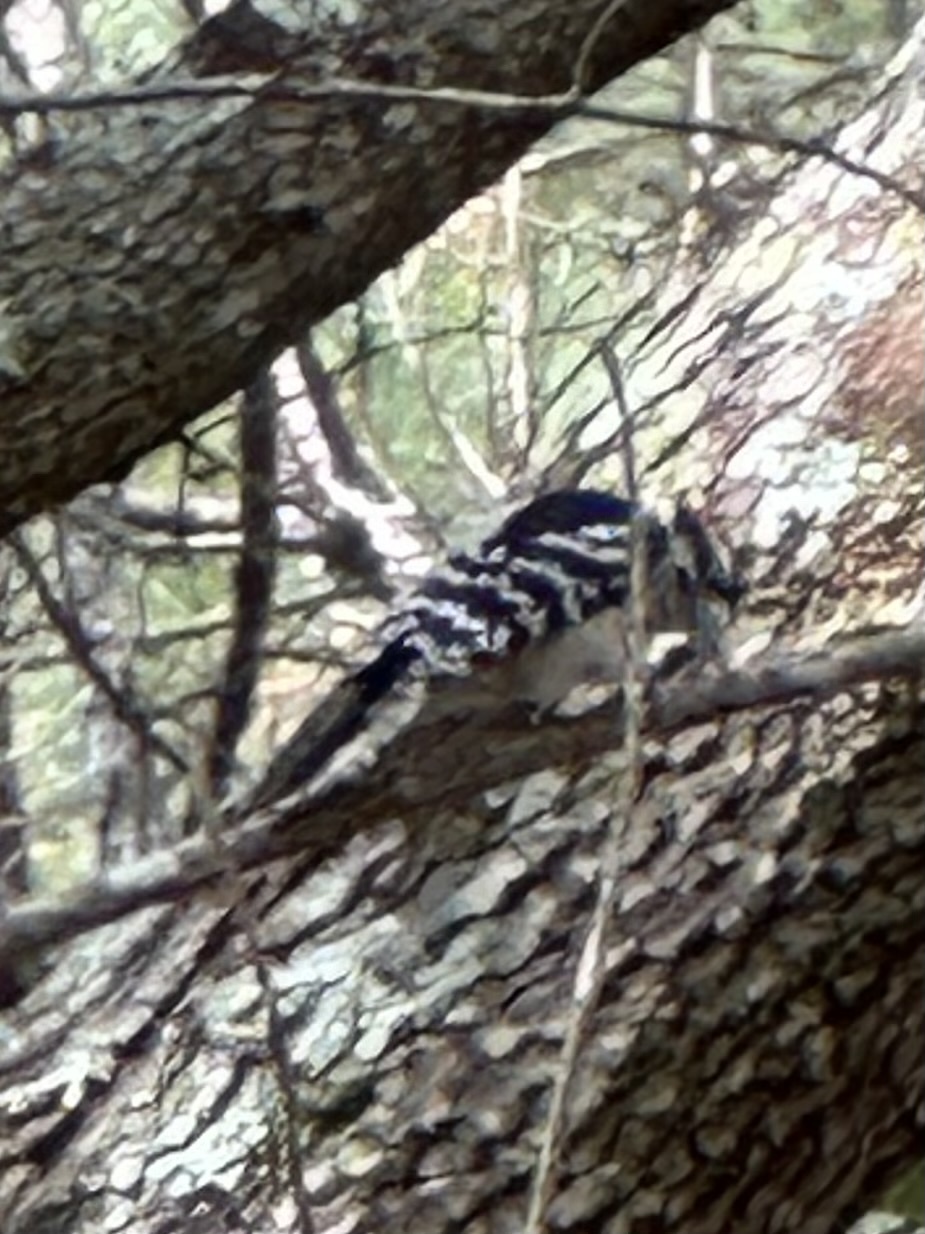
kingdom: Animalia
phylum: Chordata
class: Aves
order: Piciformes
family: Picidae
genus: Dryobates
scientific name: Dryobates pubescens
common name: Downy woodpecker
